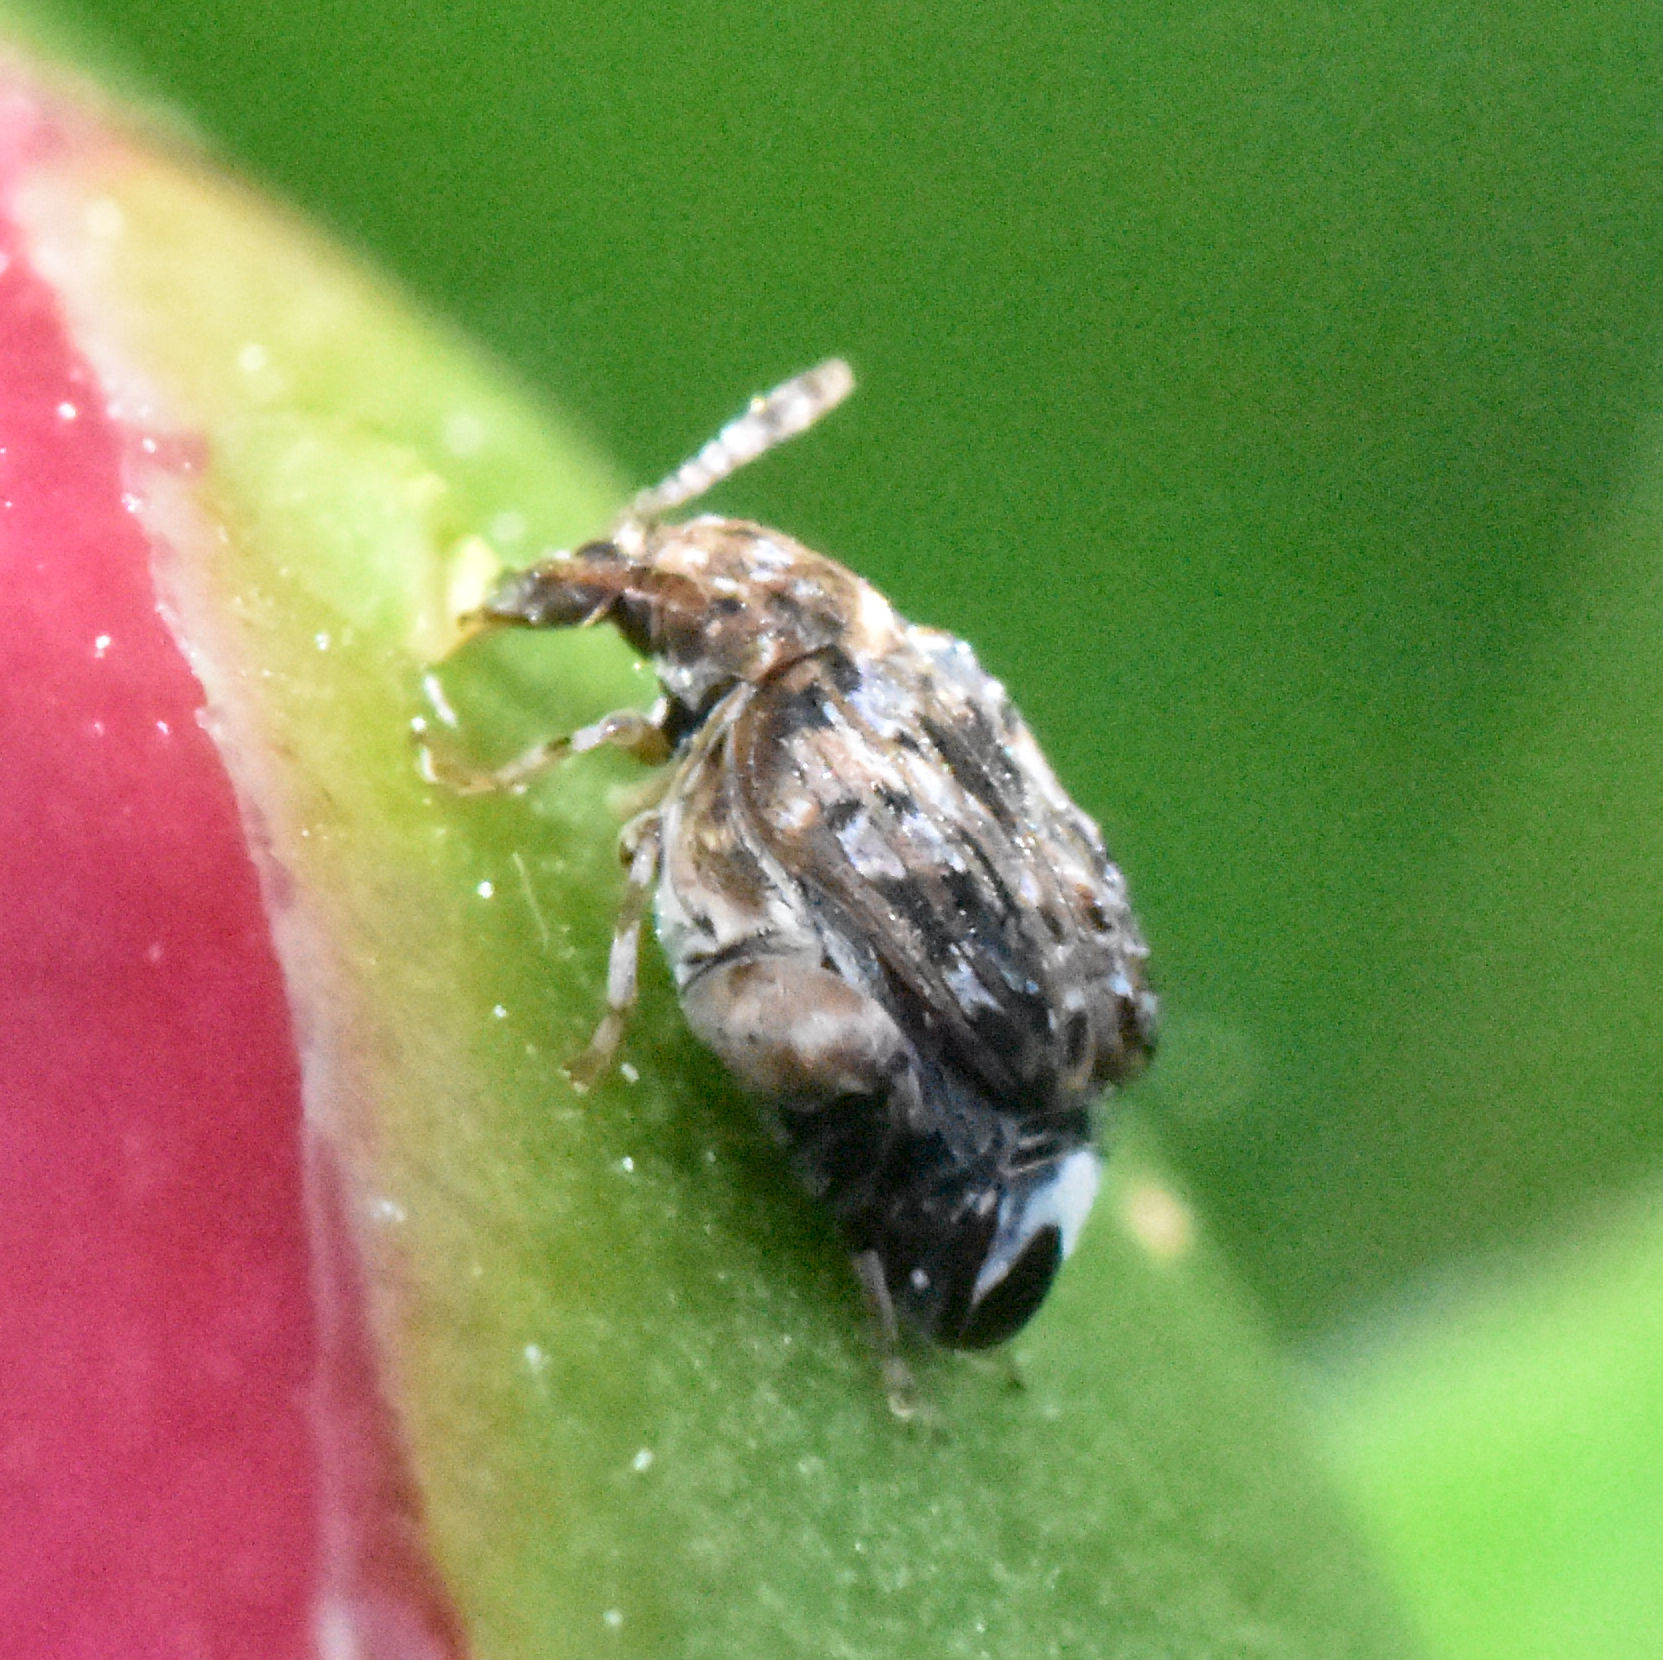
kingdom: Animalia
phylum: Arthropoda
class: Insecta
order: Coleoptera
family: Chrysomelidae
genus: Gibbobruchus
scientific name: Gibbobruchus mimus
